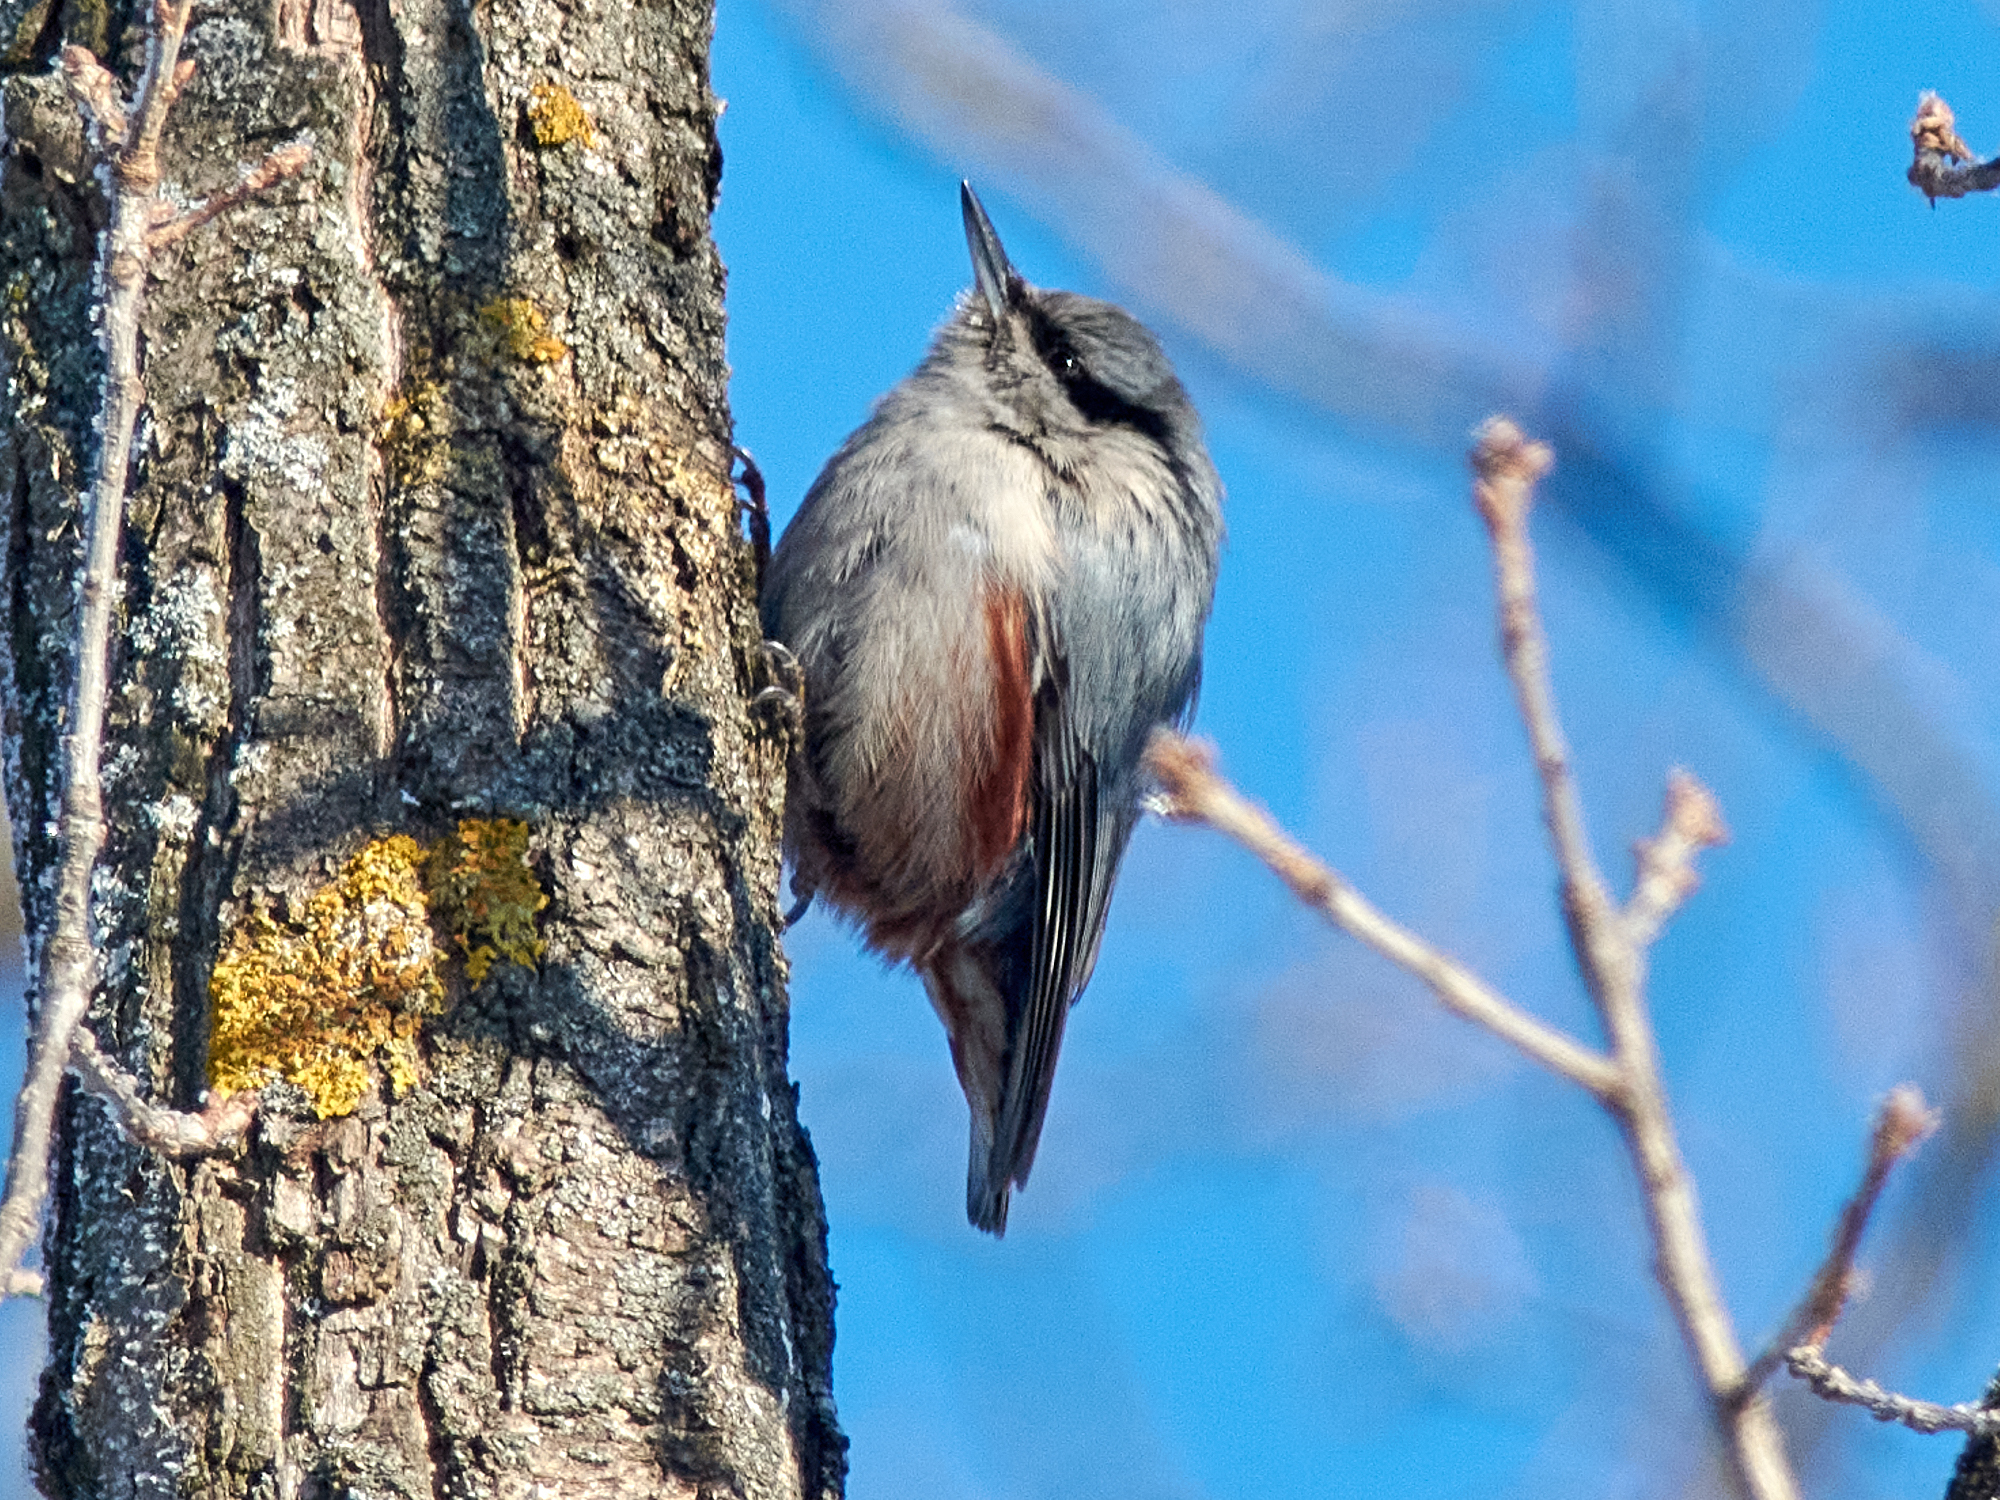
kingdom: Animalia
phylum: Chordata
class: Aves
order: Passeriformes
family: Sittidae
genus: Sitta
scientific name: Sitta europaea
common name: Eurasian nuthatch
